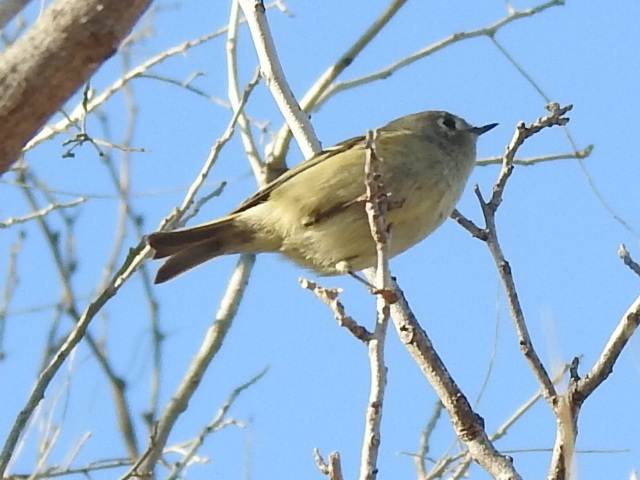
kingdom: Animalia
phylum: Chordata
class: Aves
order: Passeriformes
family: Regulidae
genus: Regulus
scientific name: Regulus calendula
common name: Ruby-crowned kinglet
